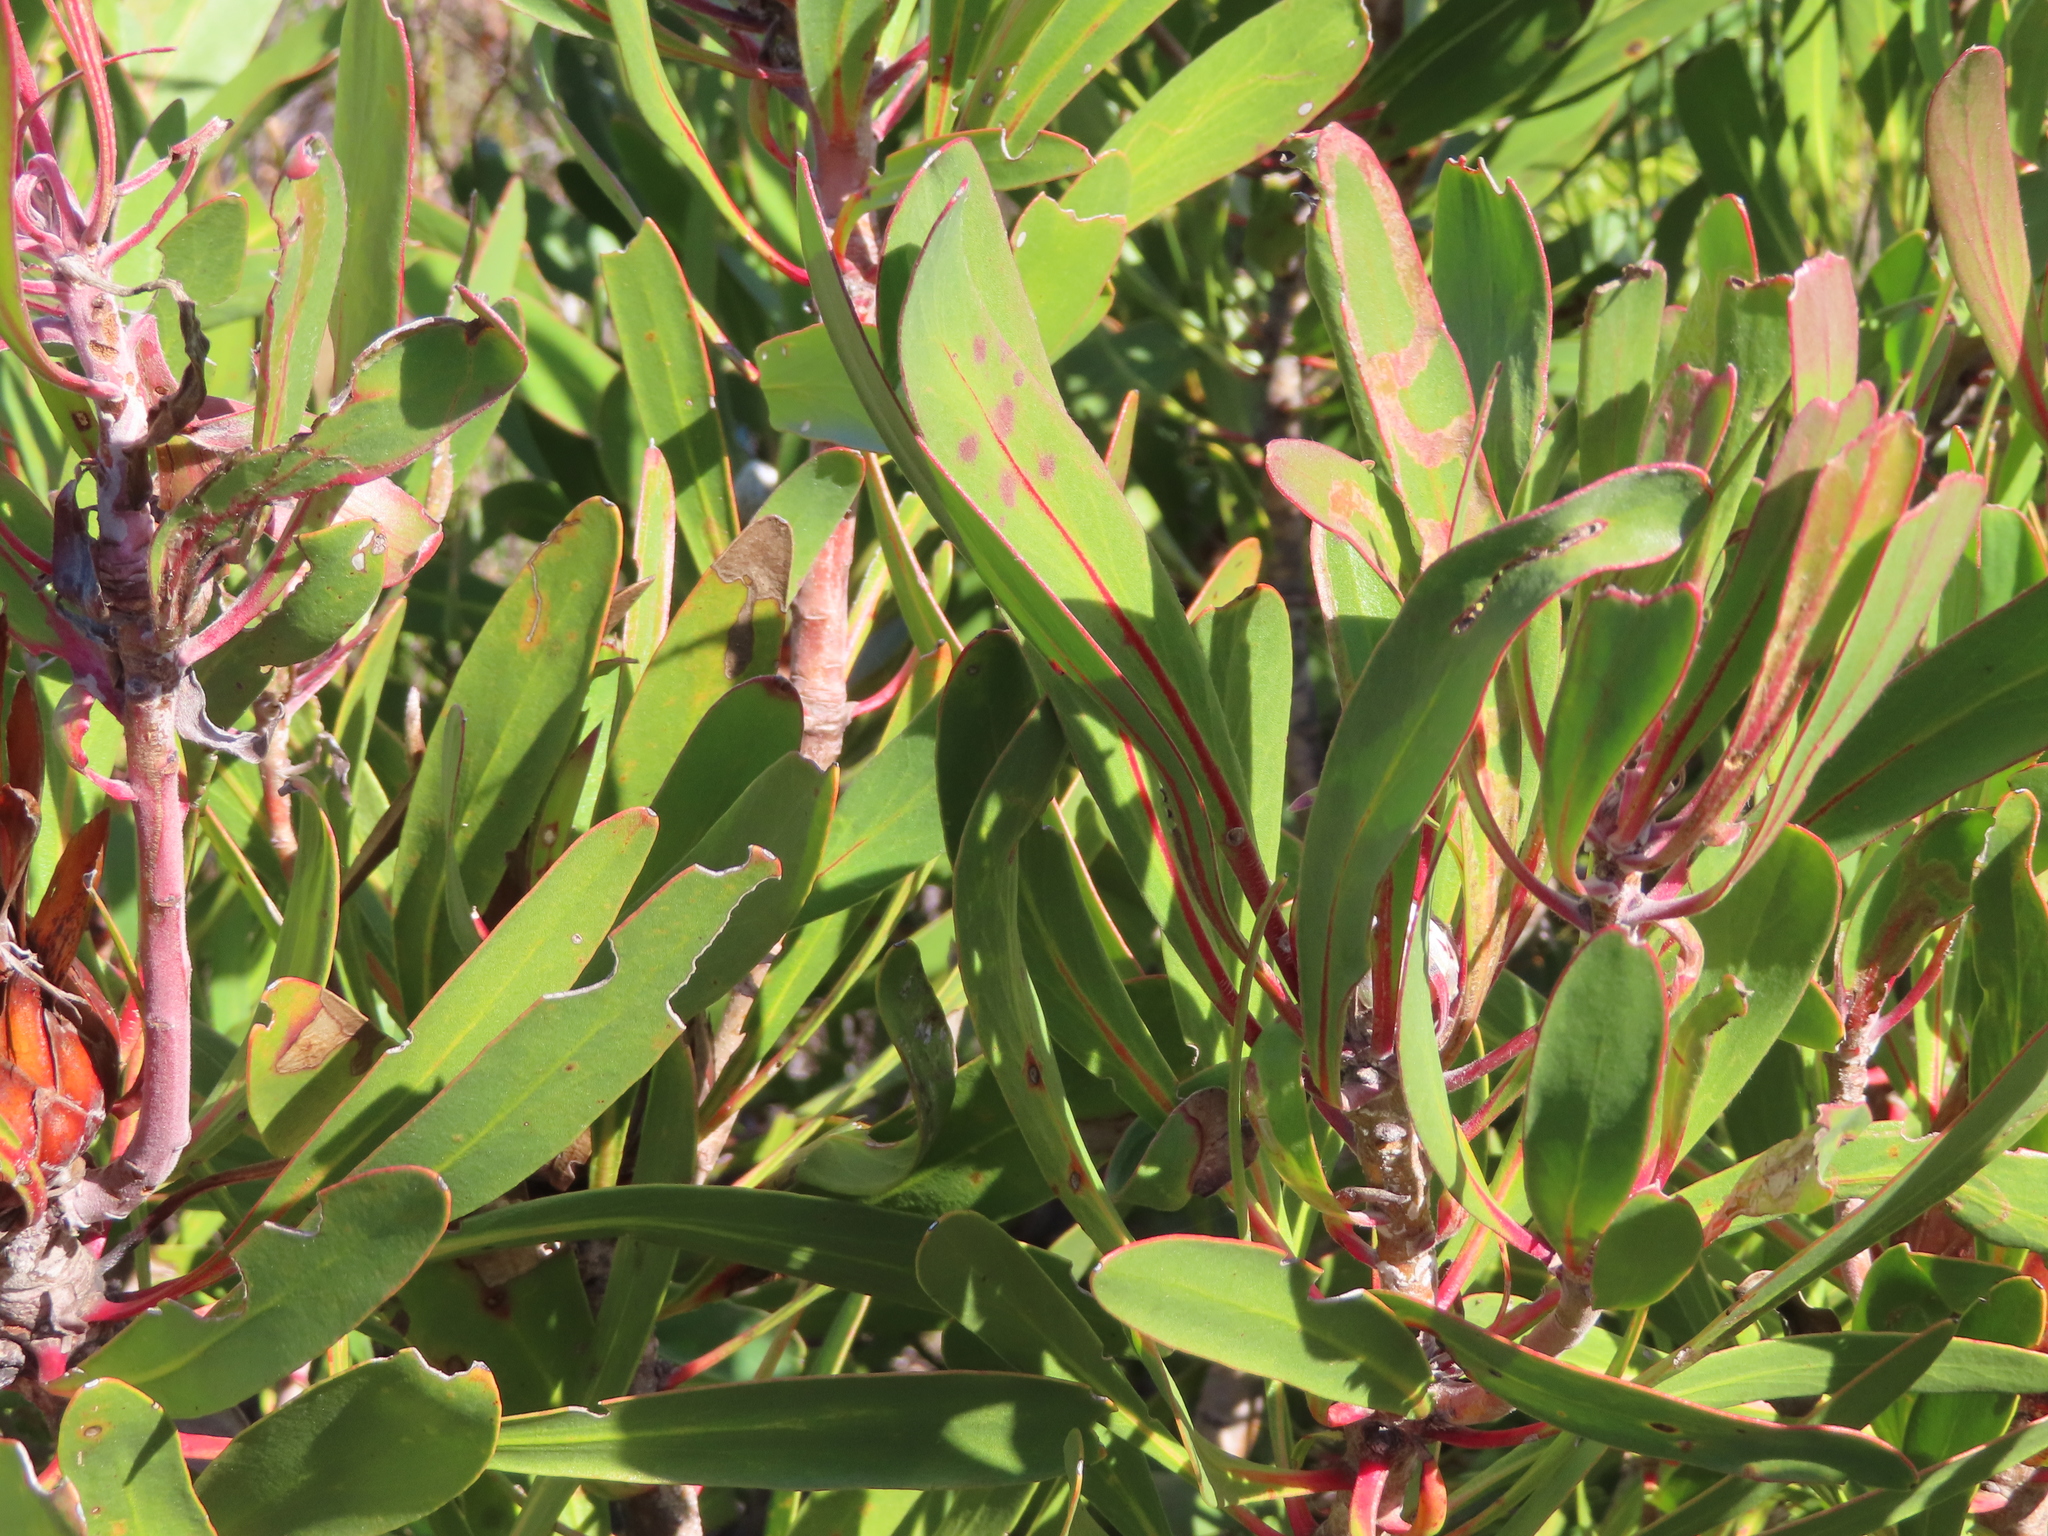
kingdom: Plantae
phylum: Tracheophyta
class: Magnoliopsida
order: Proteales
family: Proteaceae
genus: Protea
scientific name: Protea obtusifolia
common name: Bredasdorp sugarbush
